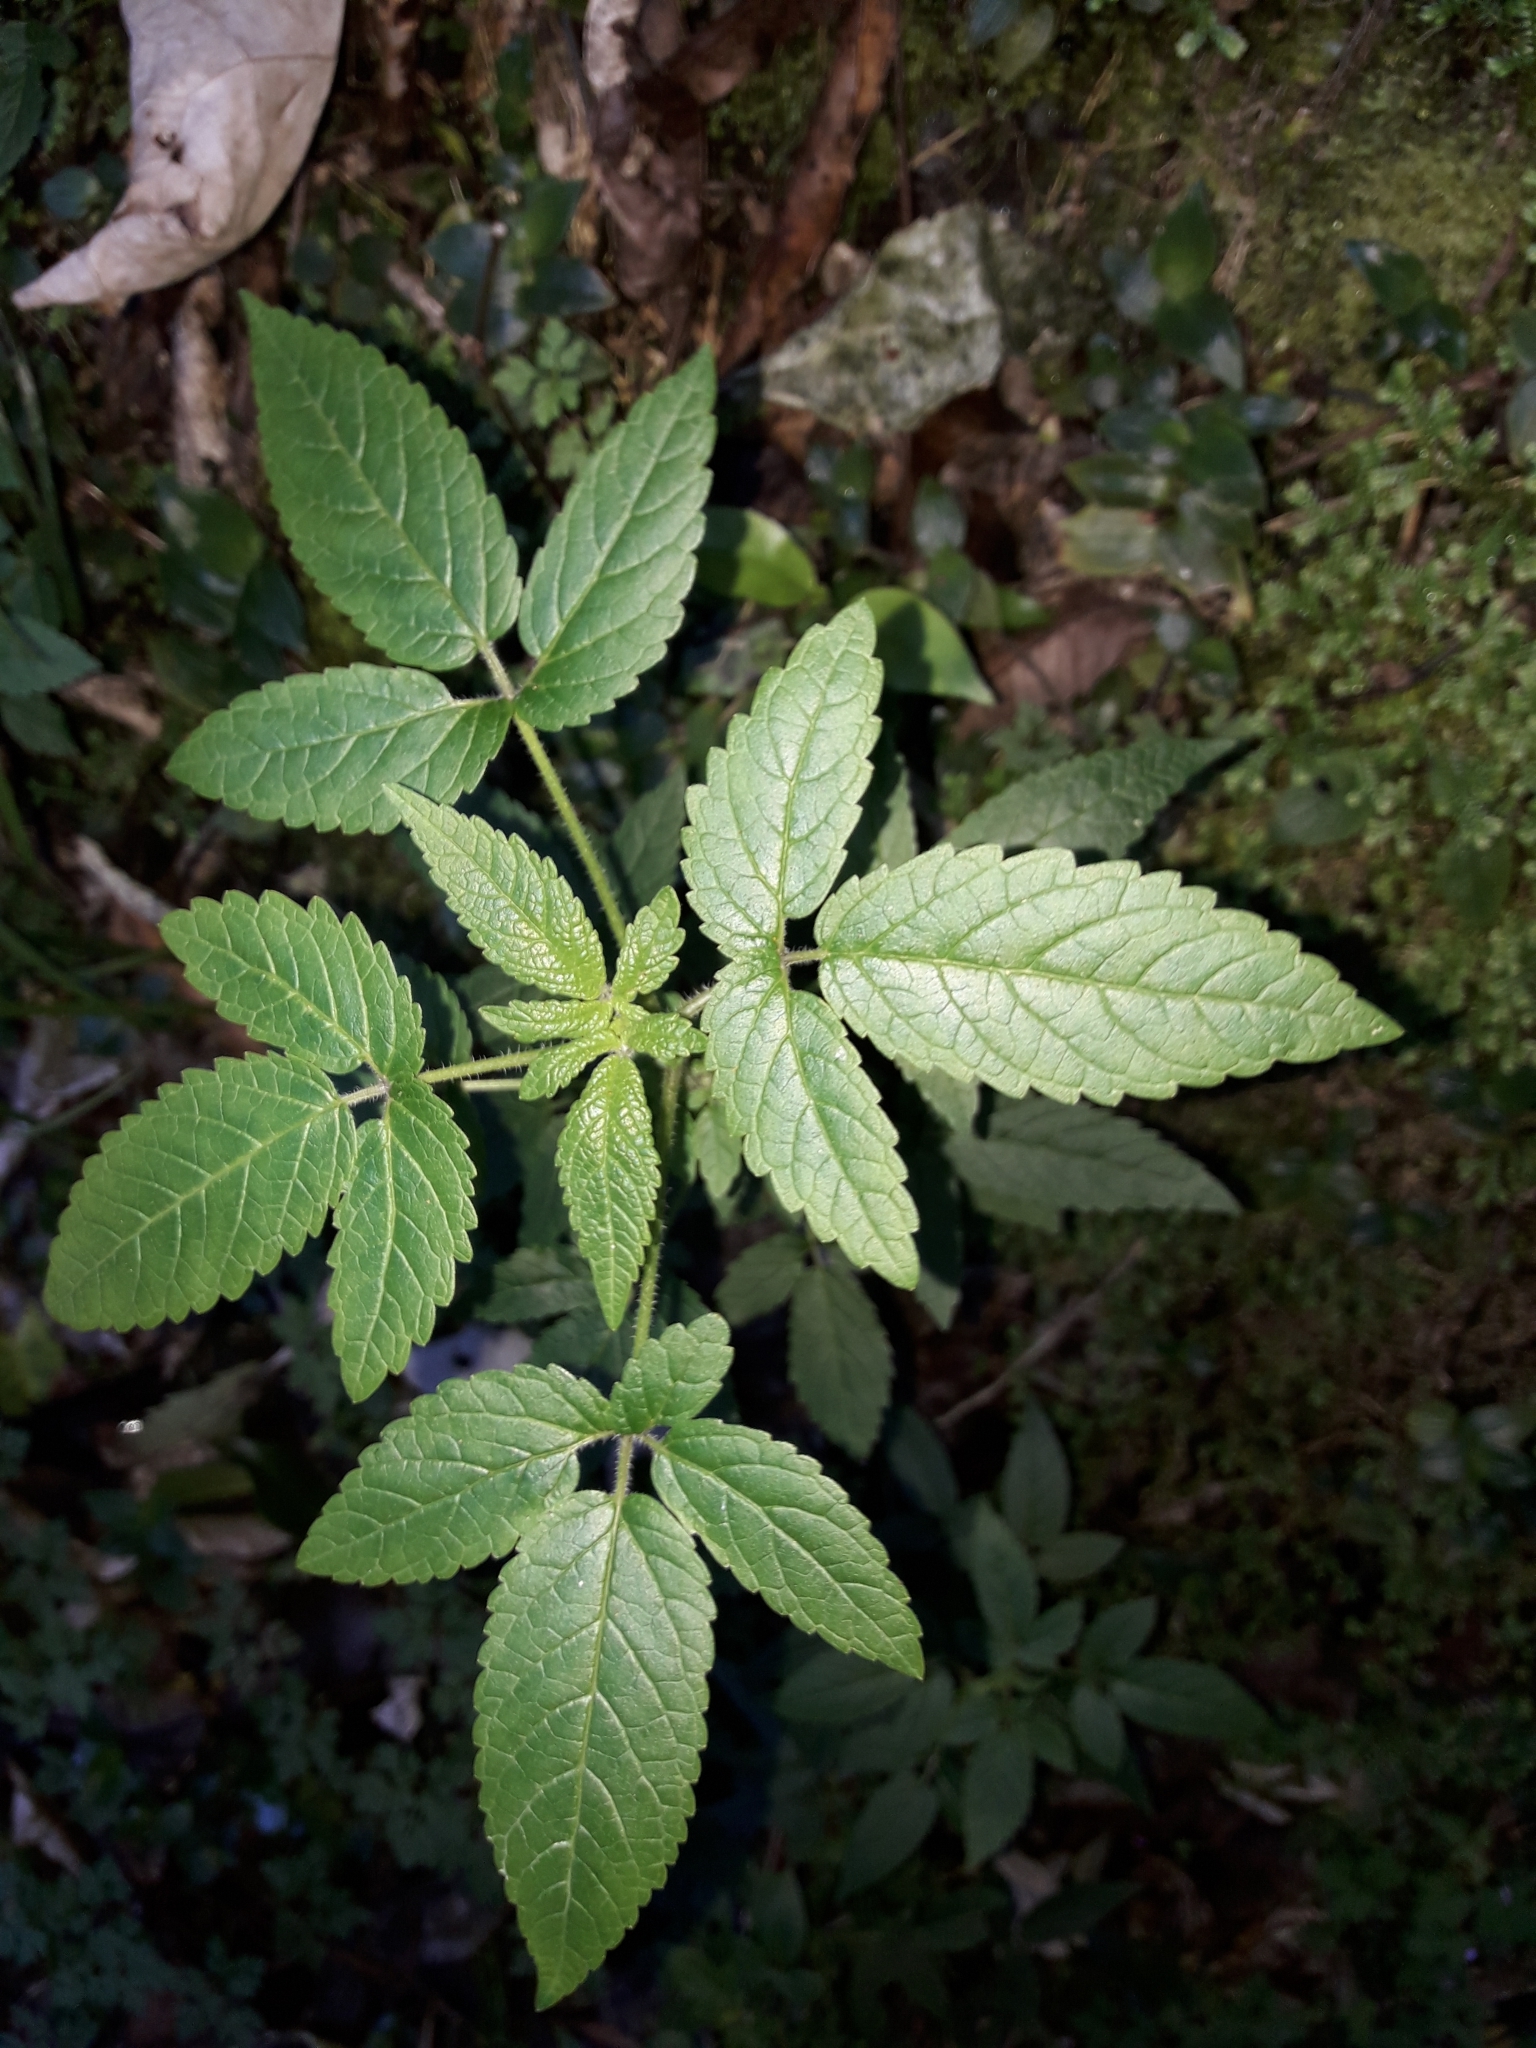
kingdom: Plantae
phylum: Tracheophyta
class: Magnoliopsida
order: Lamiales
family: Lamiaceae
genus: Cedronella
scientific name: Cedronella canariensis
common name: Canary islands balm
